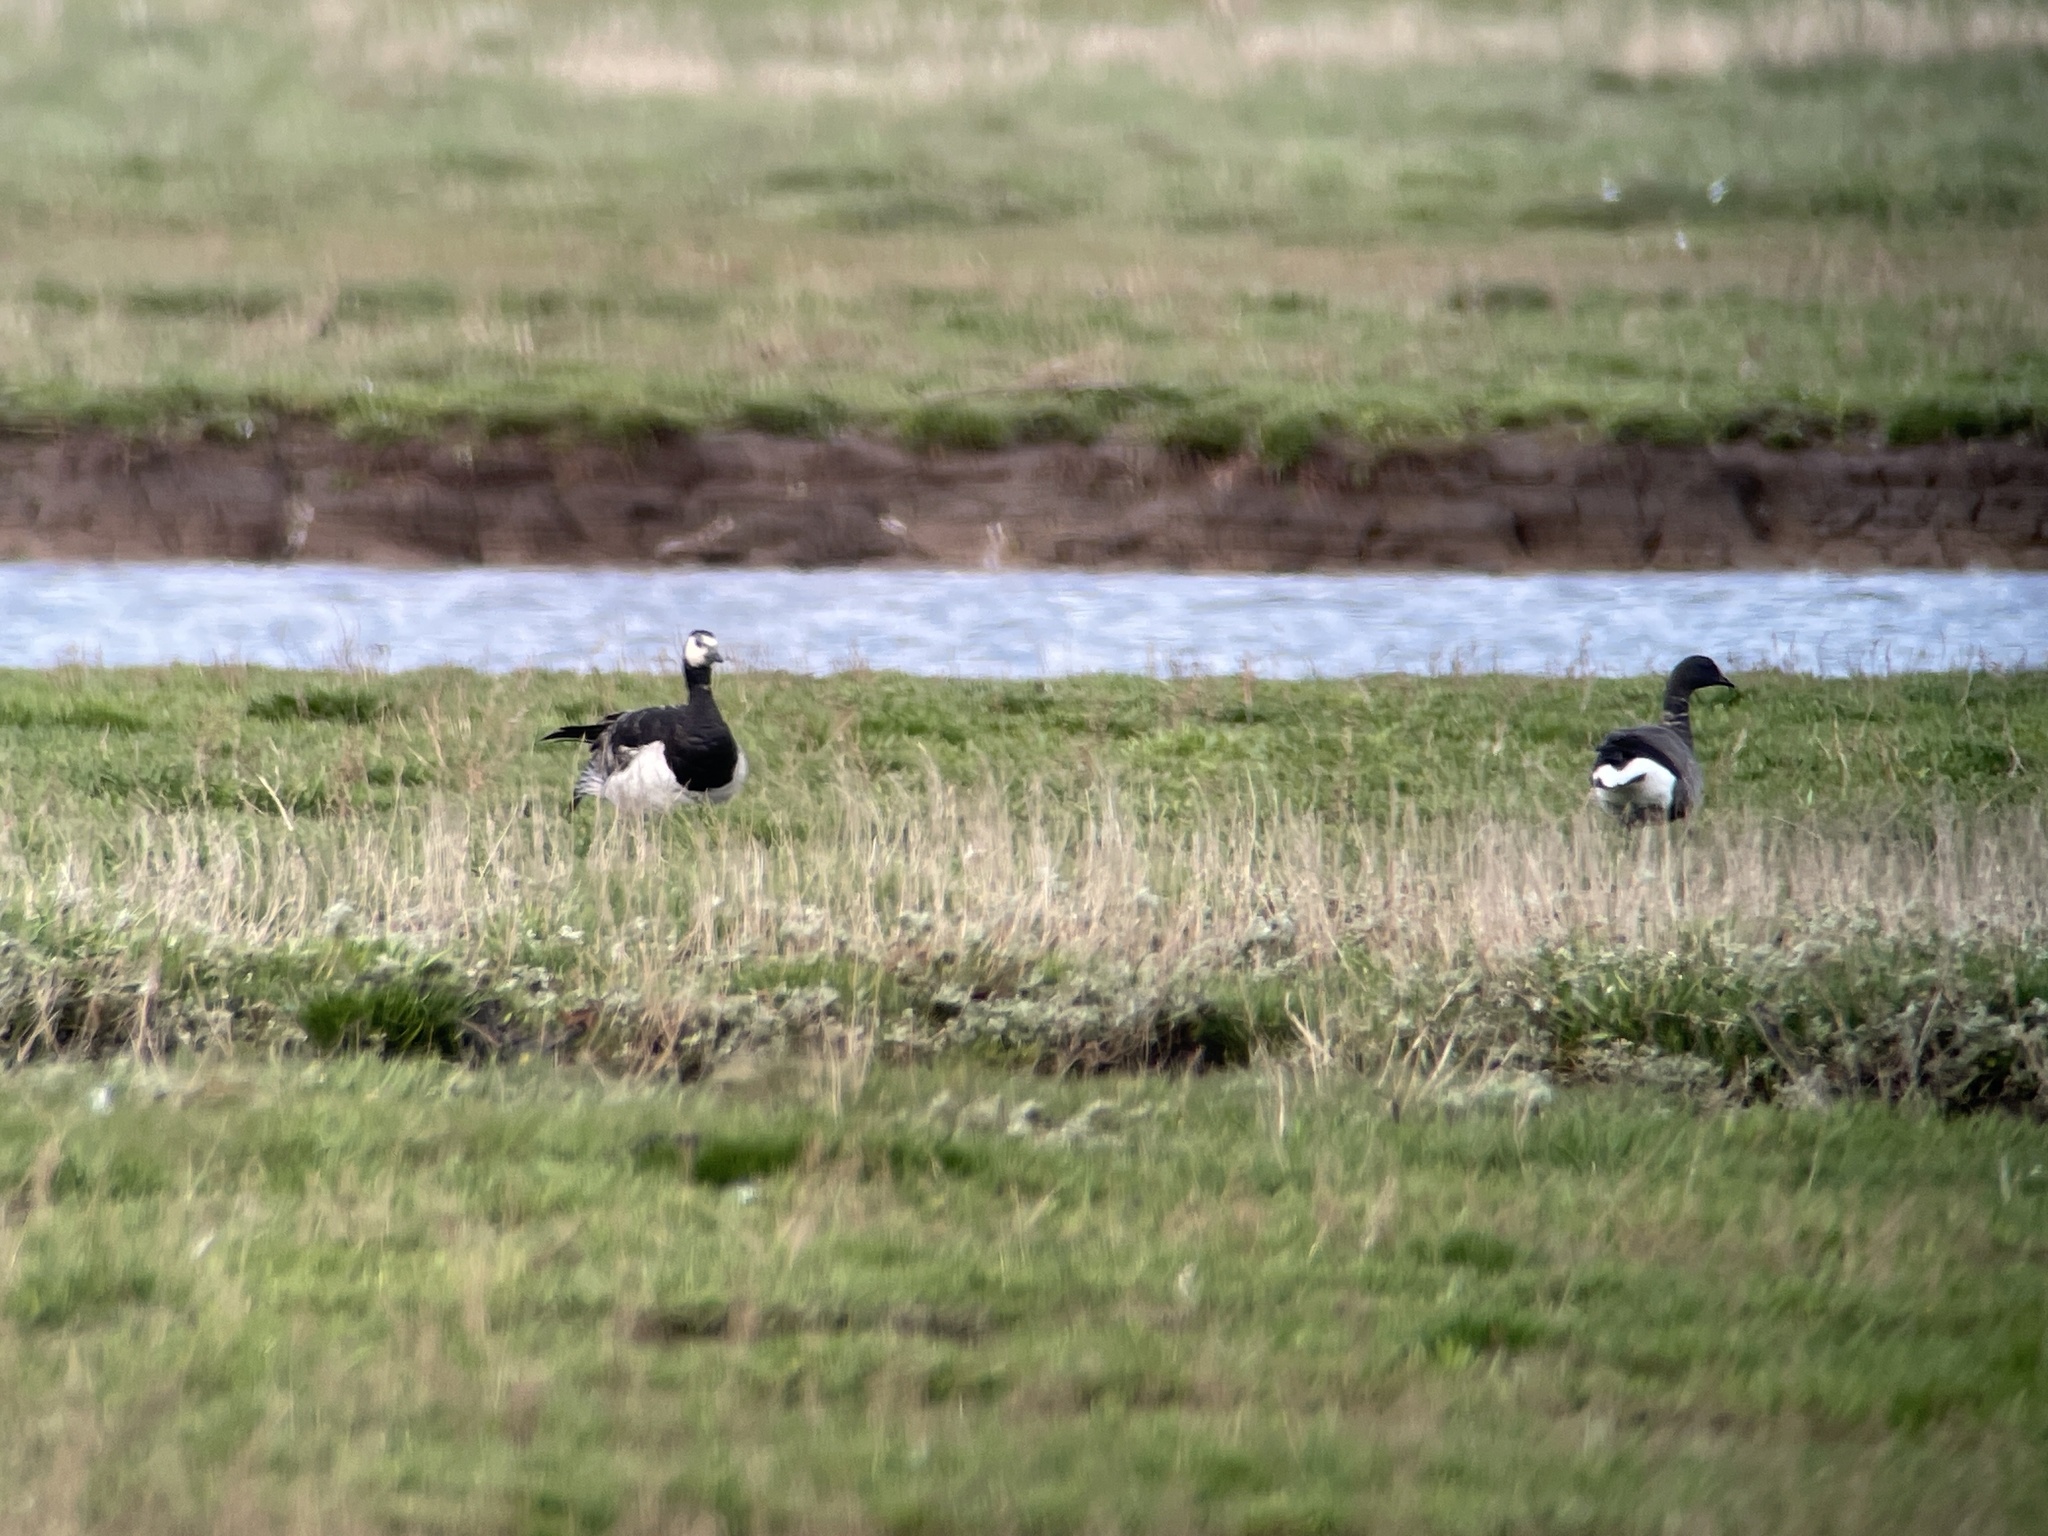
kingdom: Animalia
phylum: Chordata
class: Aves
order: Anseriformes
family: Anatidae
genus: Branta
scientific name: Branta leucopsis
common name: Barnacle goose
